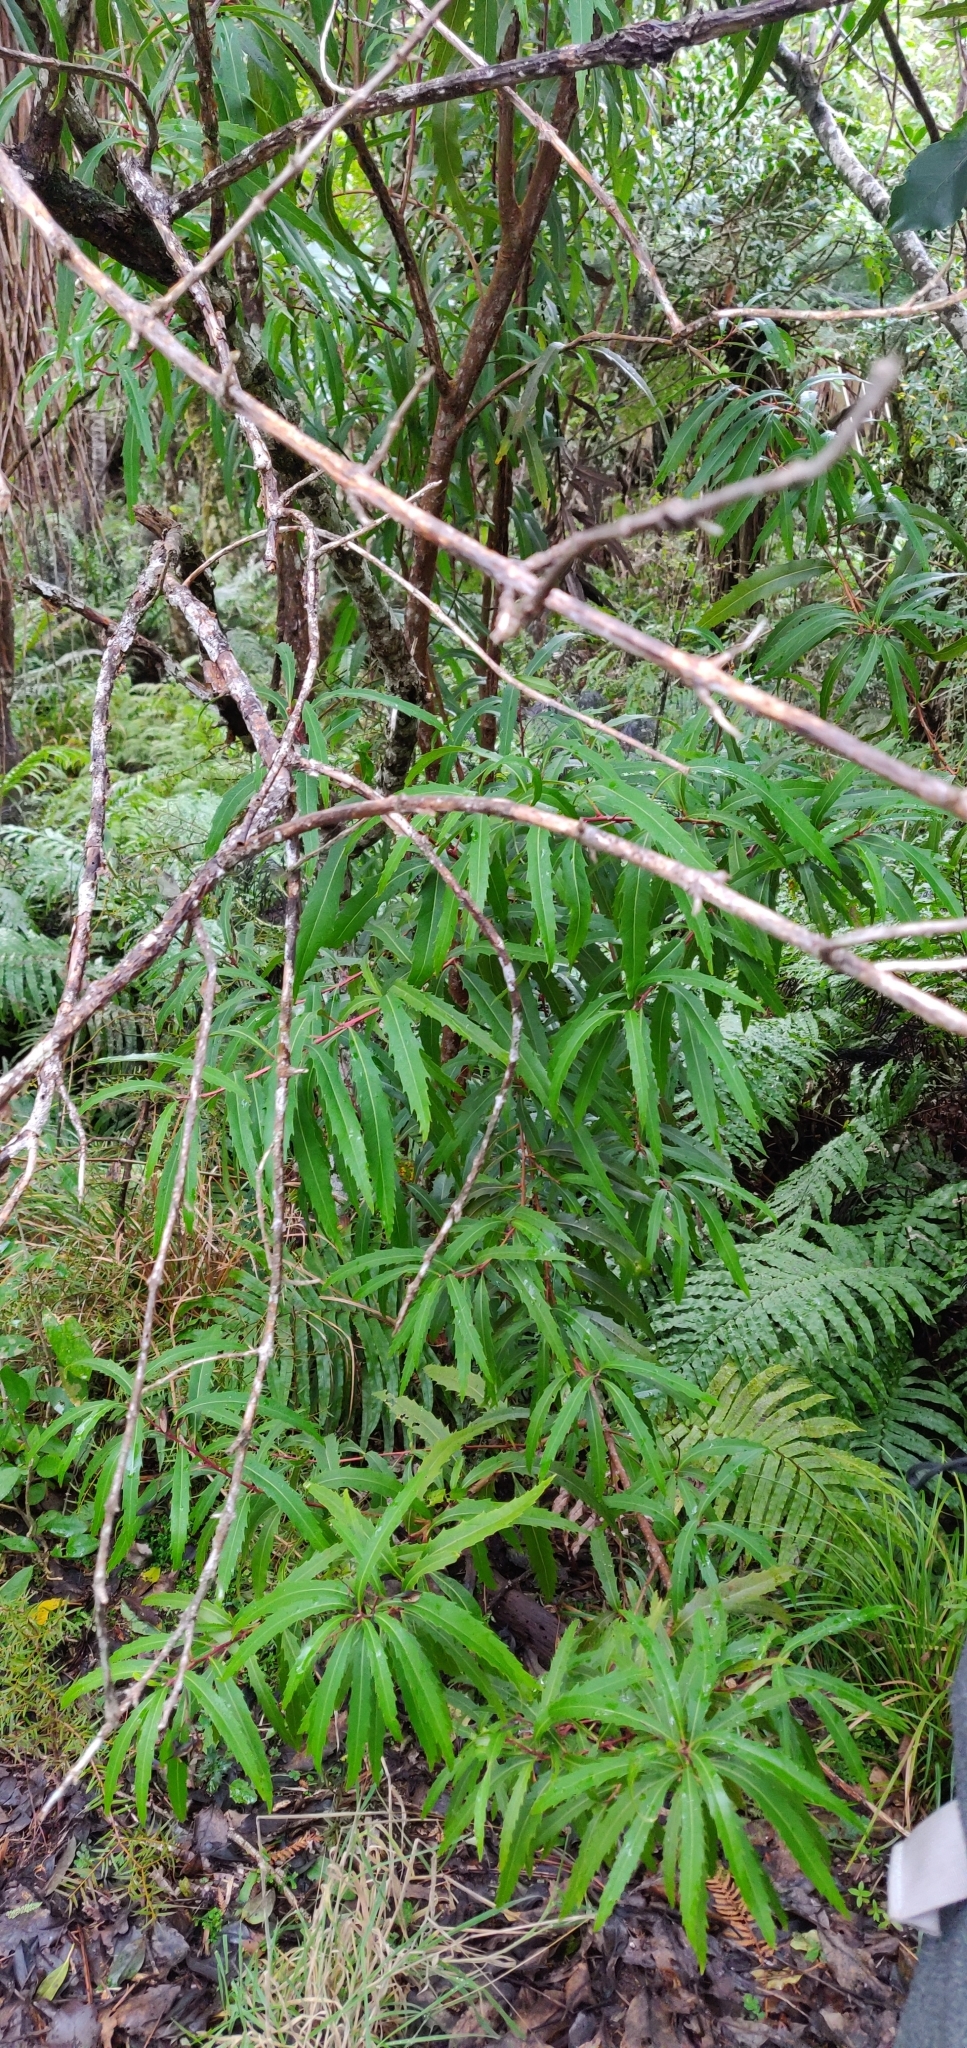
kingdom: Plantae
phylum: Tracheophyta
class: Magnoliopsida
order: Proteales
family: Proteaceae
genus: Lomatia
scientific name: Lomatia fraseri
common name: Forest lomatia
